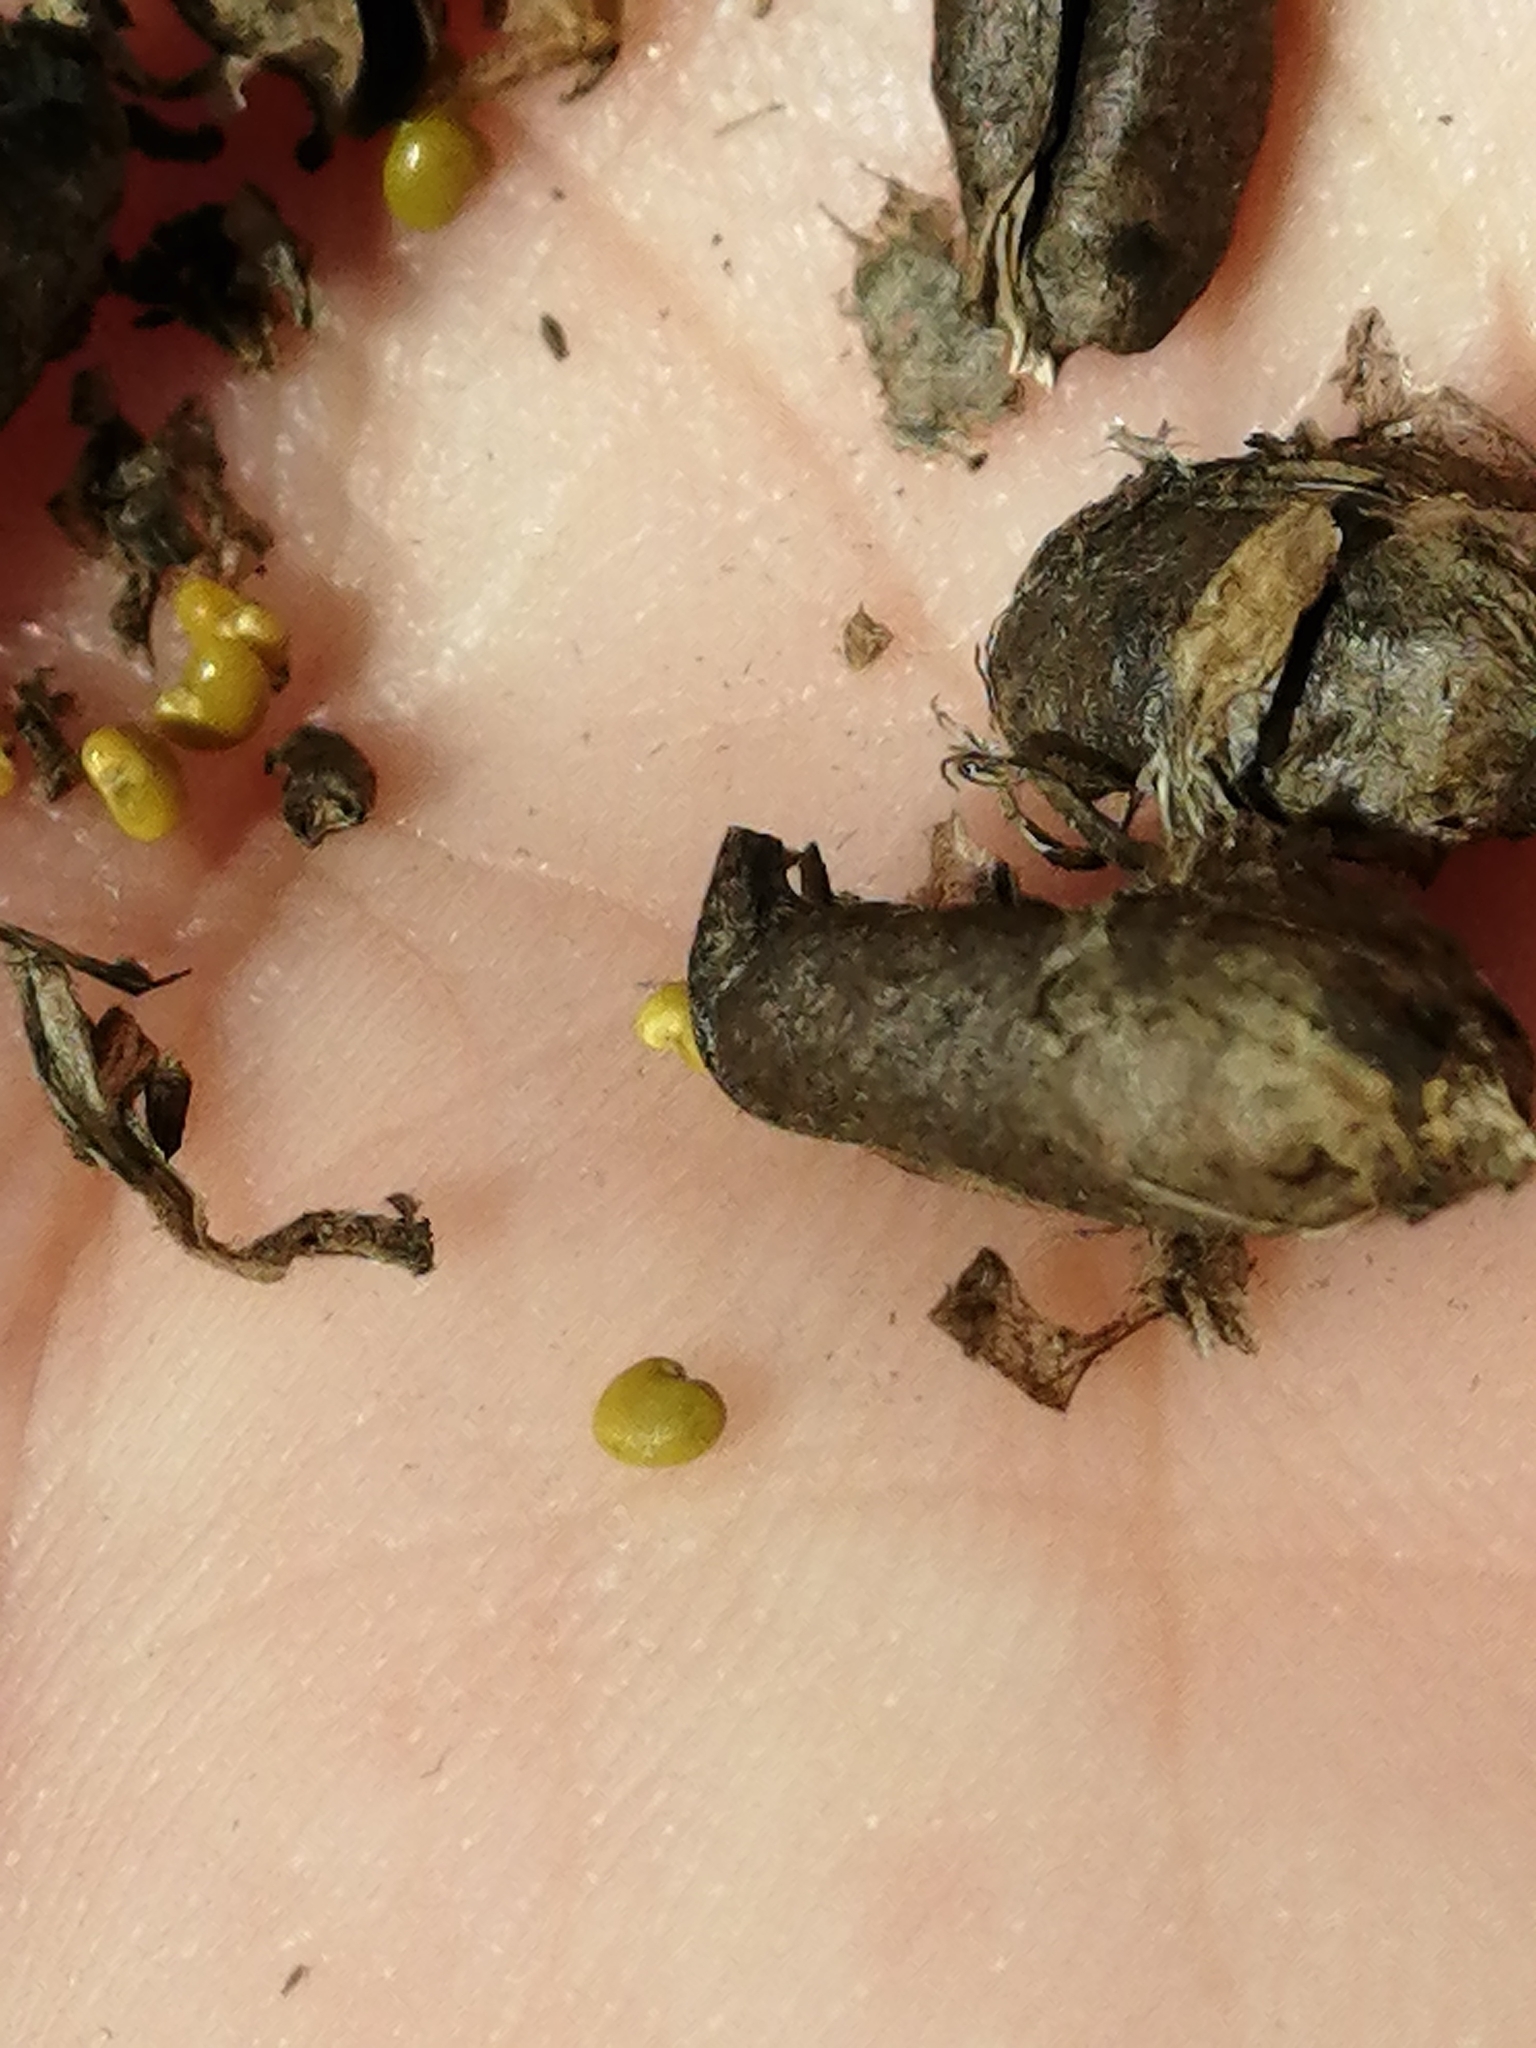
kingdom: Plantae
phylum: Tracheophyta
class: Magnoliopsida
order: Fabales
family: Fabaceae
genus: Astragalus
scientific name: Astragalus uliginosus
